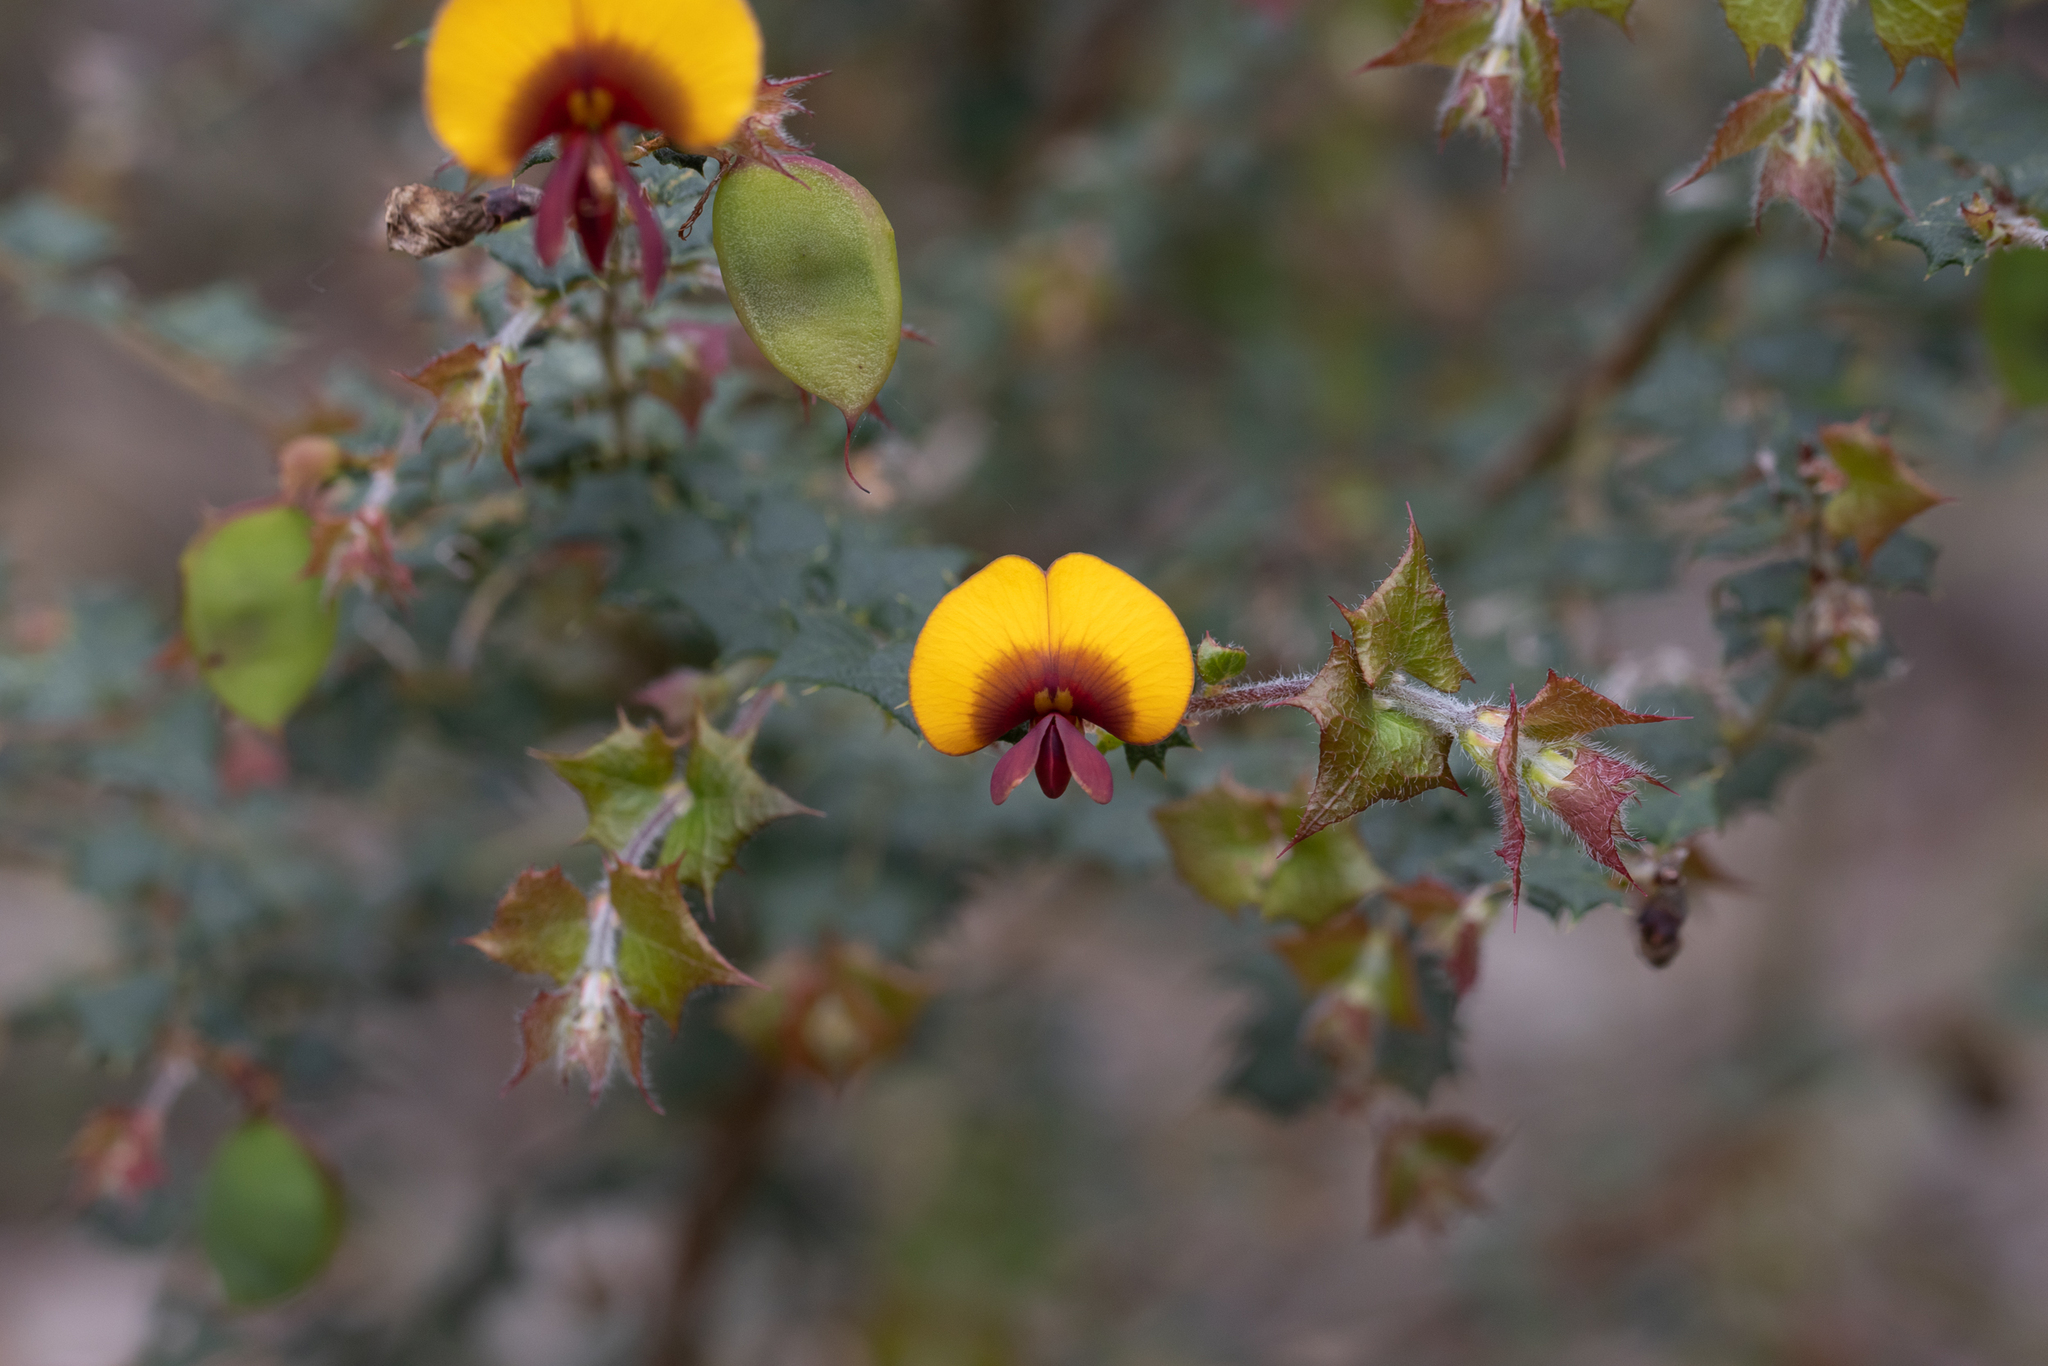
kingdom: Plantae
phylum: Tracheophyta
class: Magnoliopsida
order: Fabales
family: Fabaceae
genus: Bossiaea
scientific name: Bossiaea aquifolium
